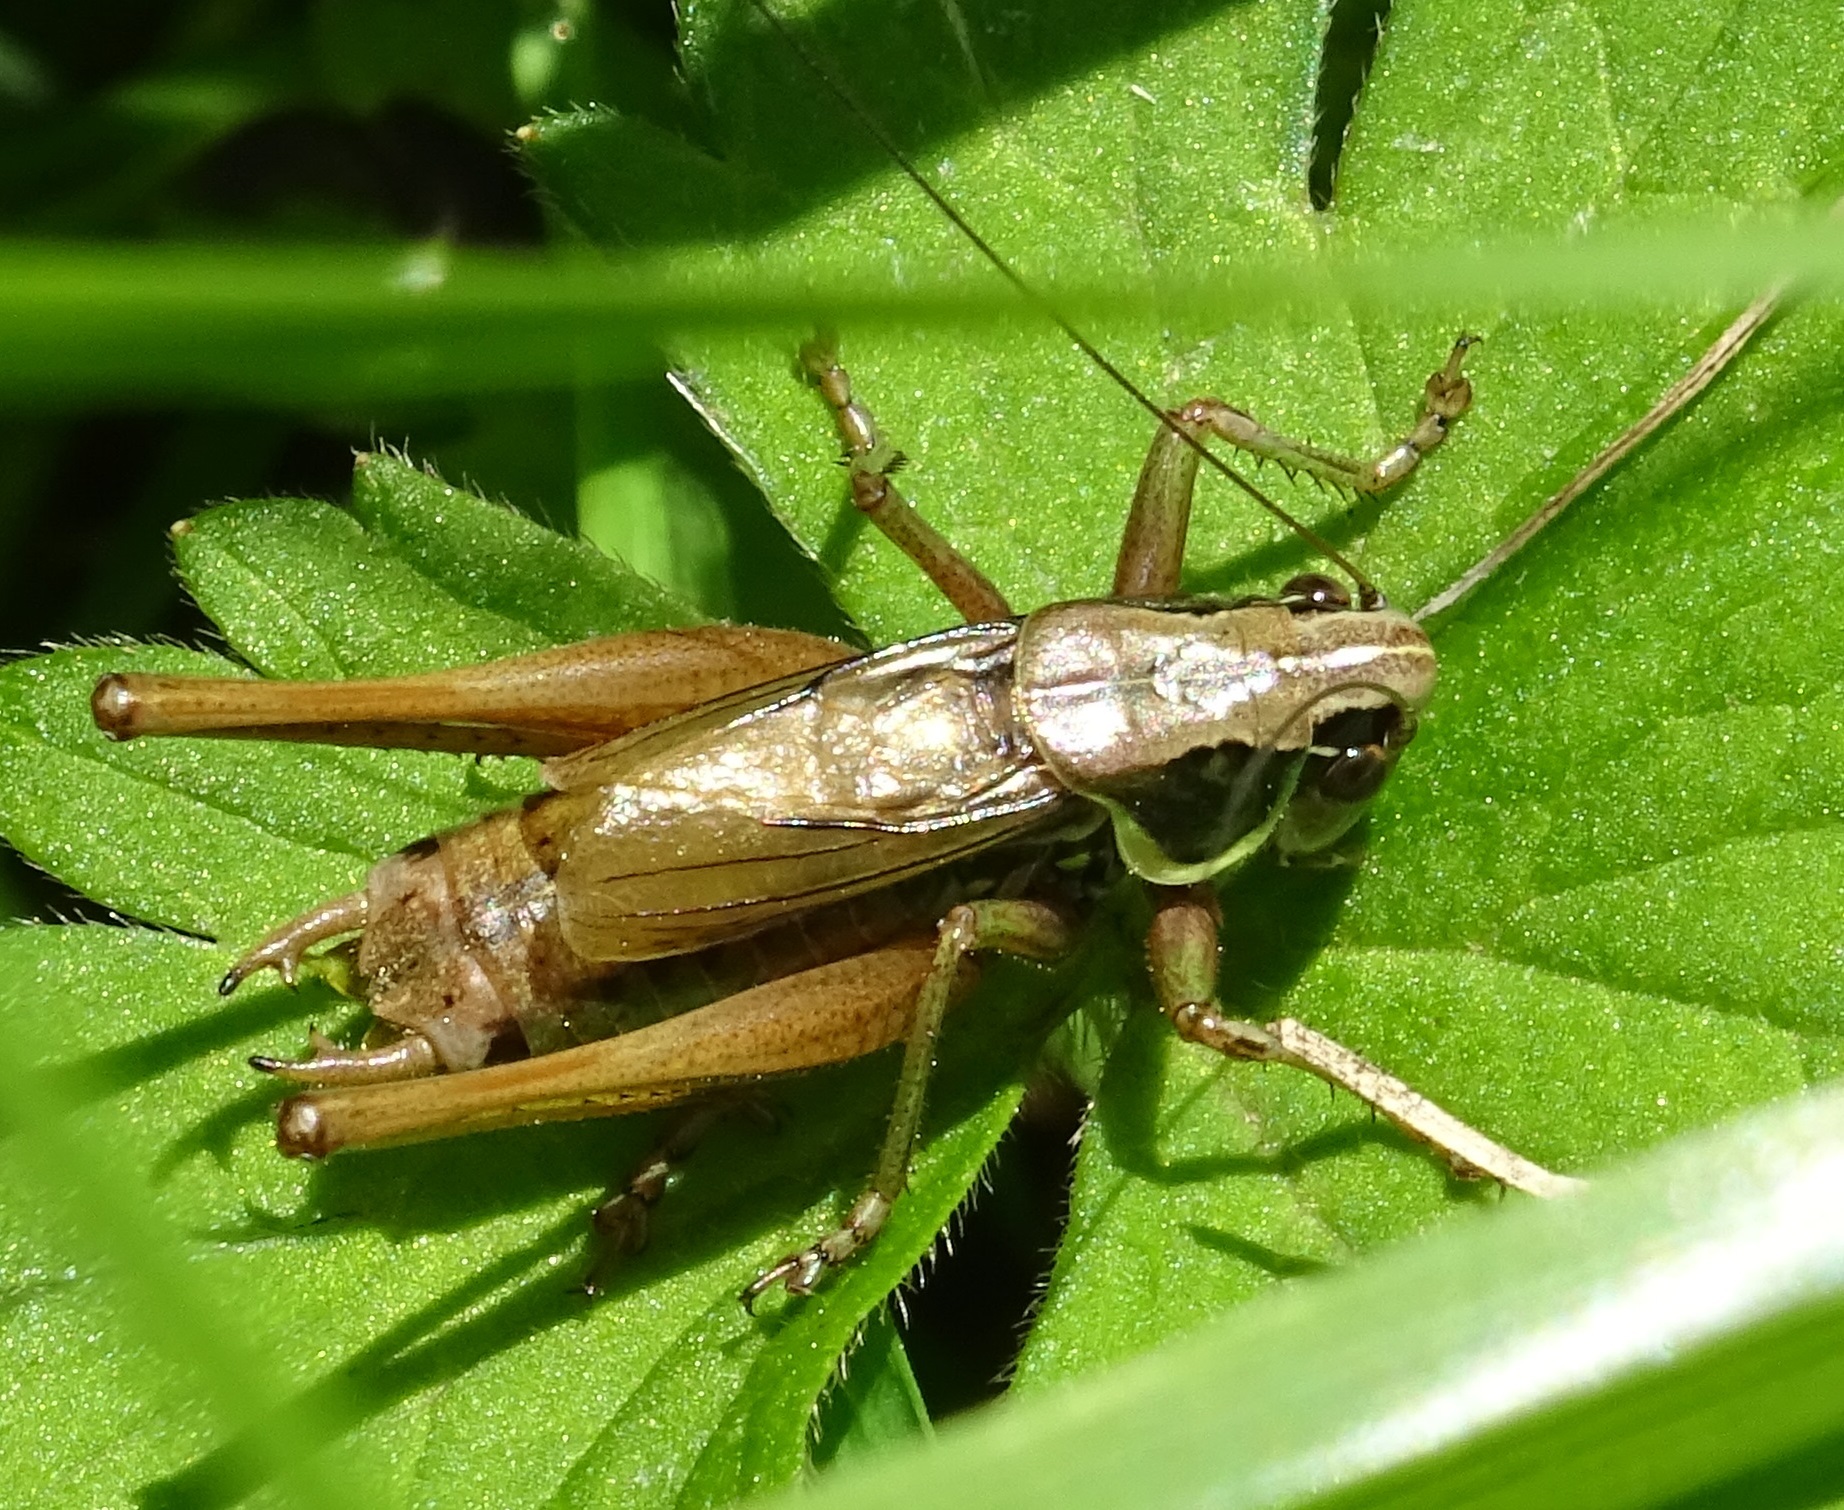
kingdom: Animalia
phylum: Arthropoda
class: Insecta
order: Orthoptera
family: Tettigoniidae
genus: Roeseliana
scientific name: Roeseliana roeselii
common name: Roesel's bush cricket
